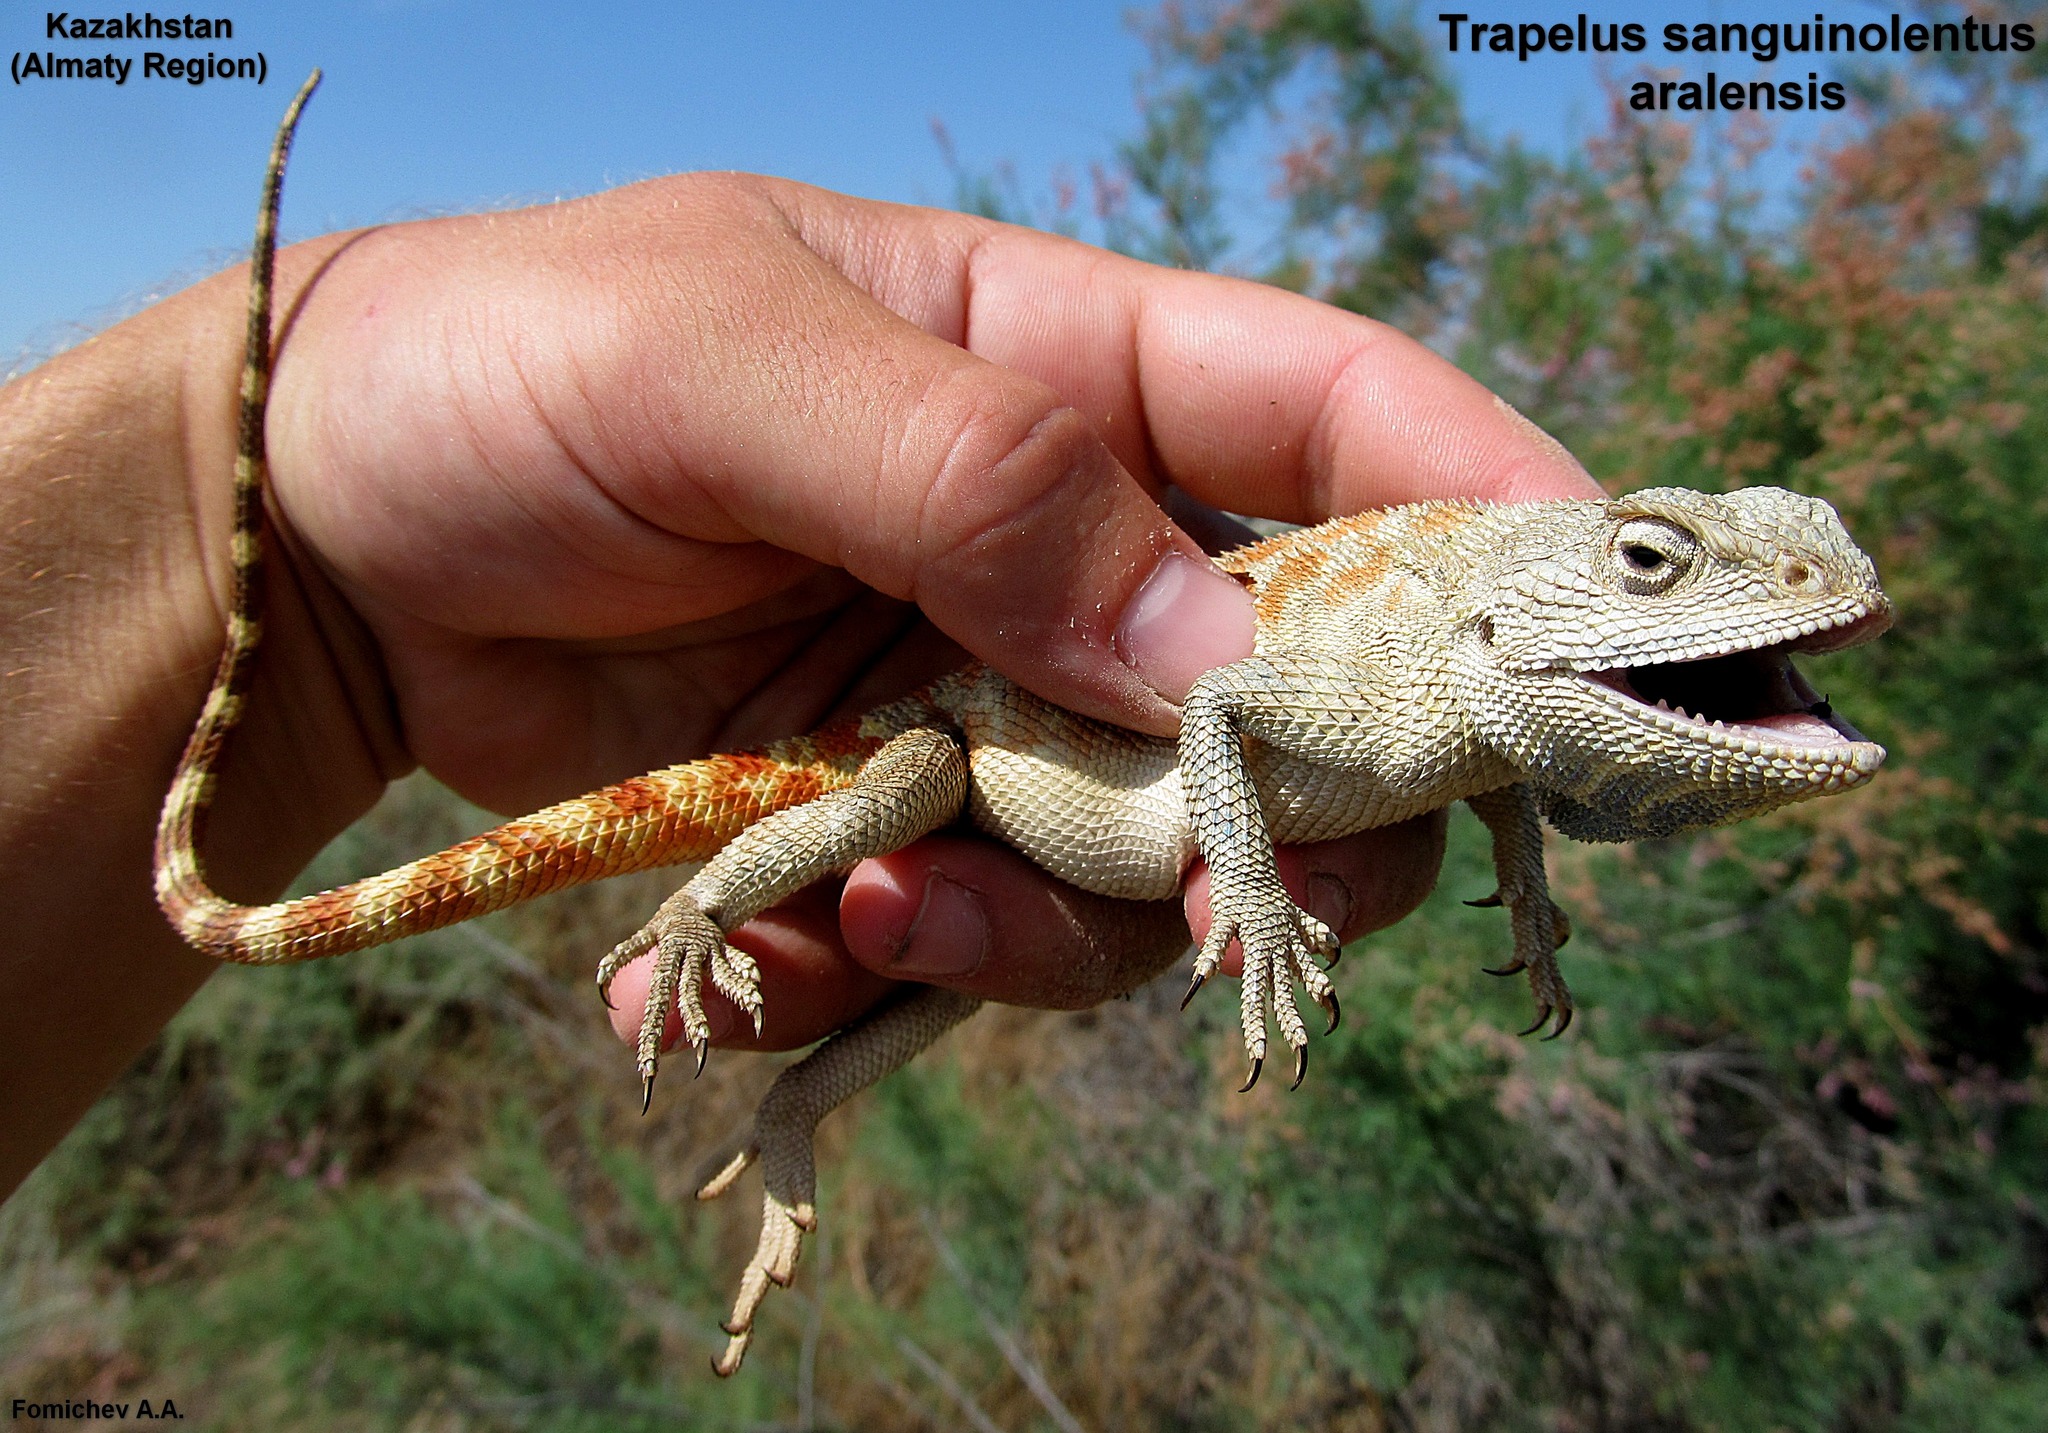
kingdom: Animalia
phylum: Chordata
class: Squamata
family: Agamidae
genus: Trapelus
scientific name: Trapelus sanguinolentus
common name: Steppe agama
